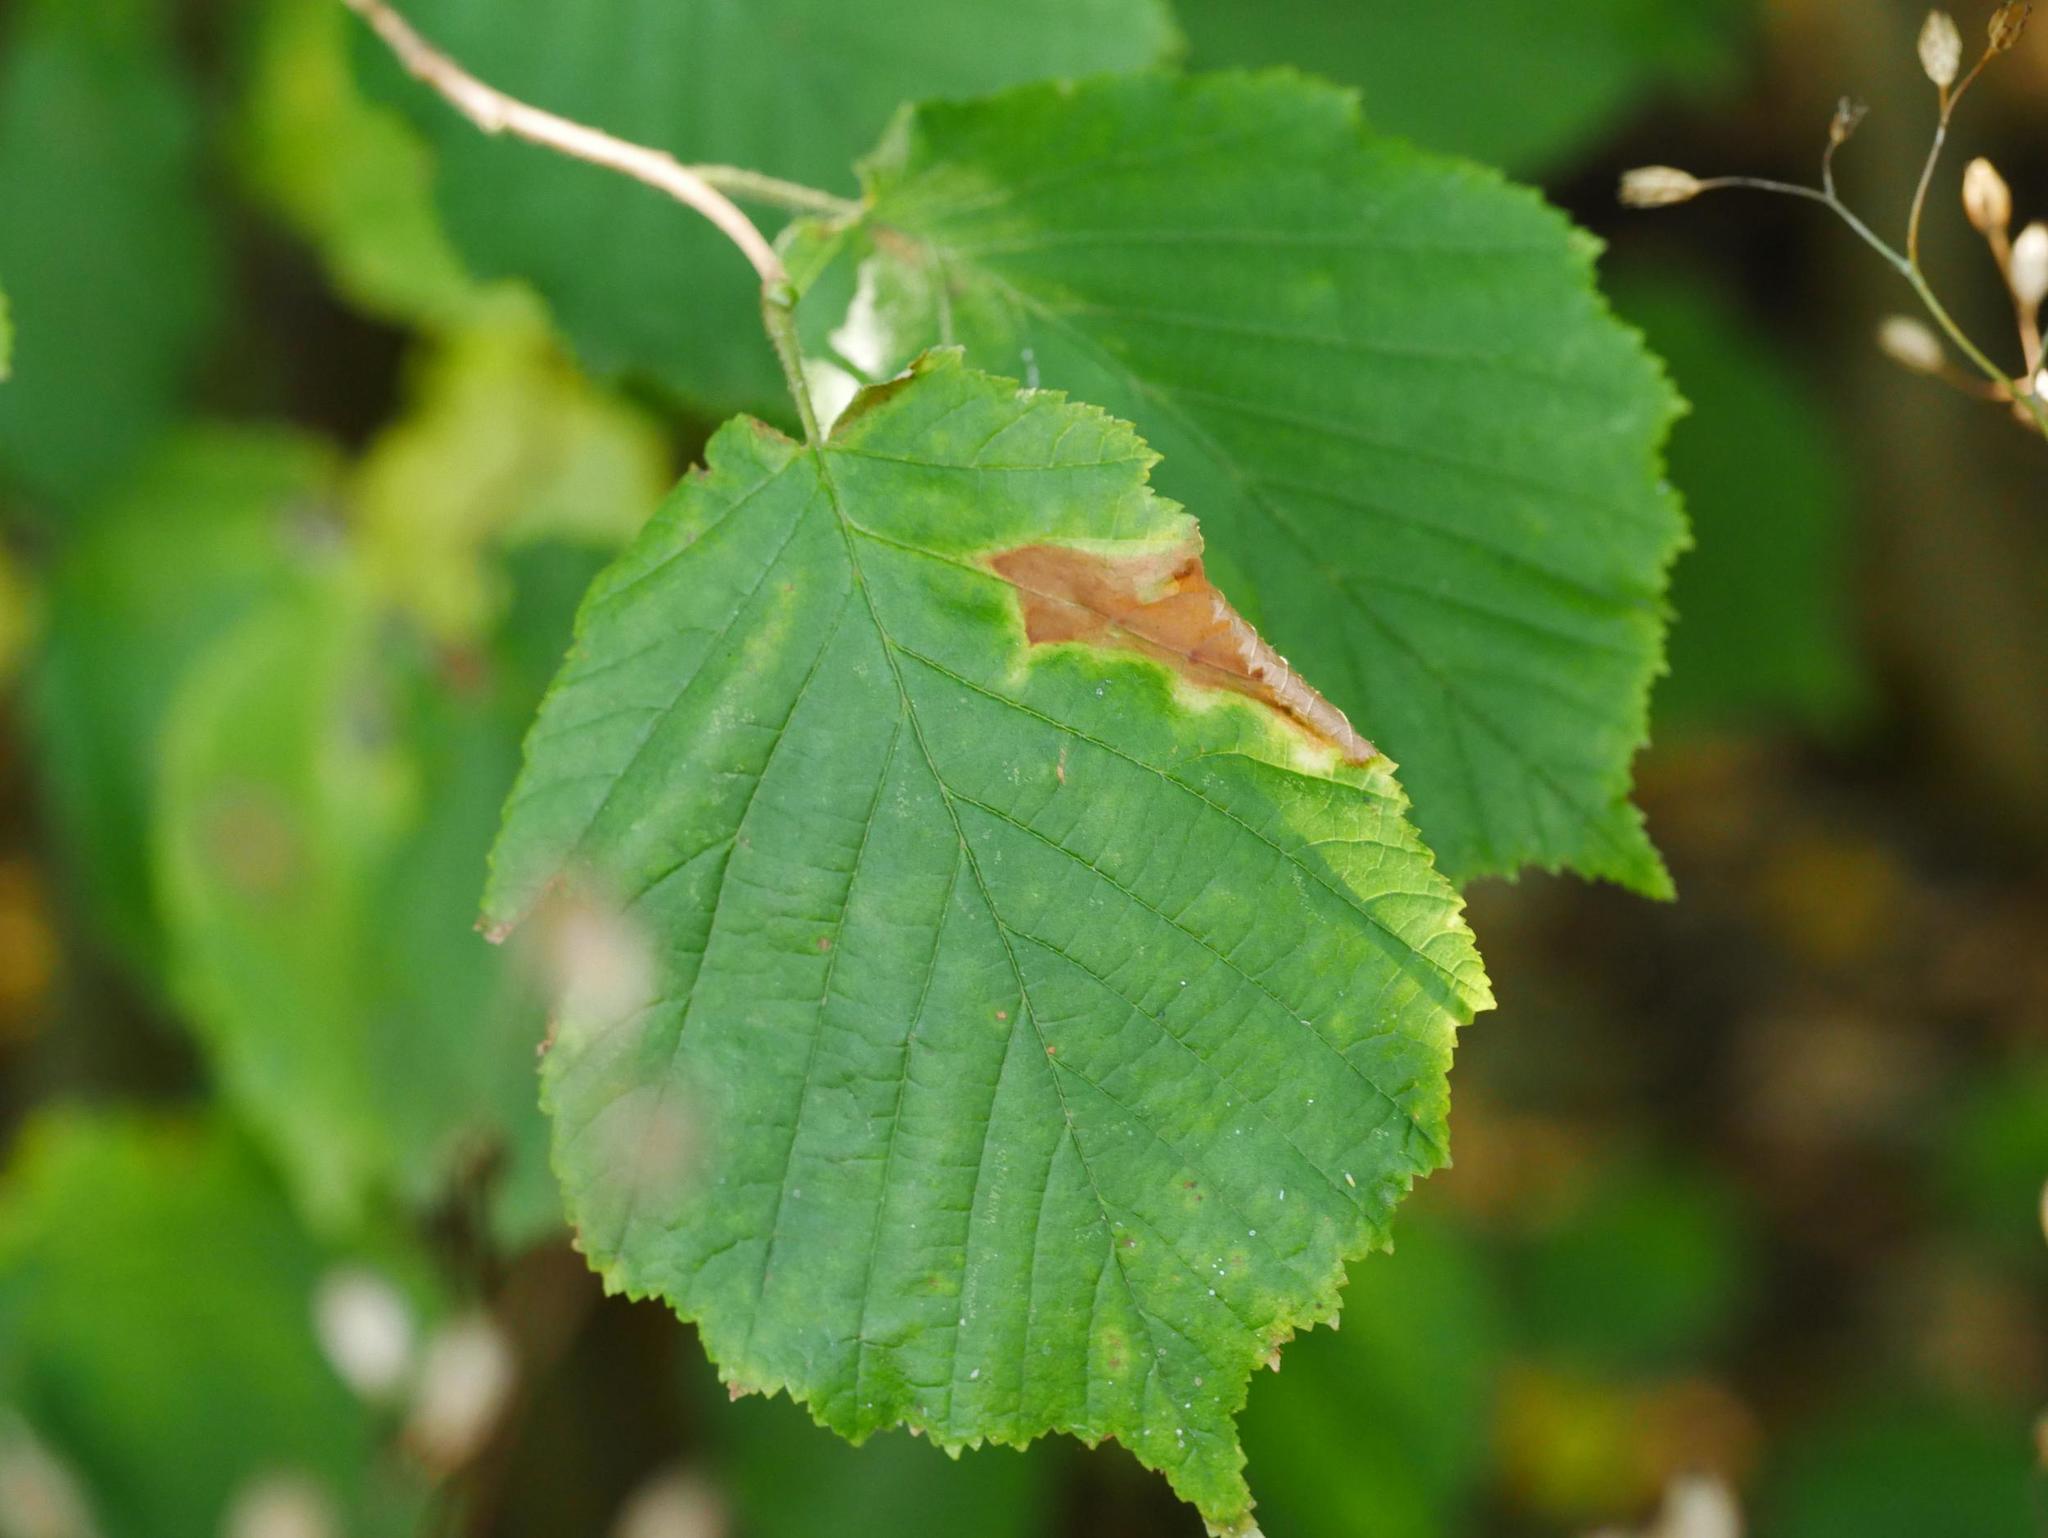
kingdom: Plantae
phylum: Tracheophyta
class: Magnoliopsida
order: Fagales
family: Betulaceae
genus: Corylus
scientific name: Corylus avellana
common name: European hazel
